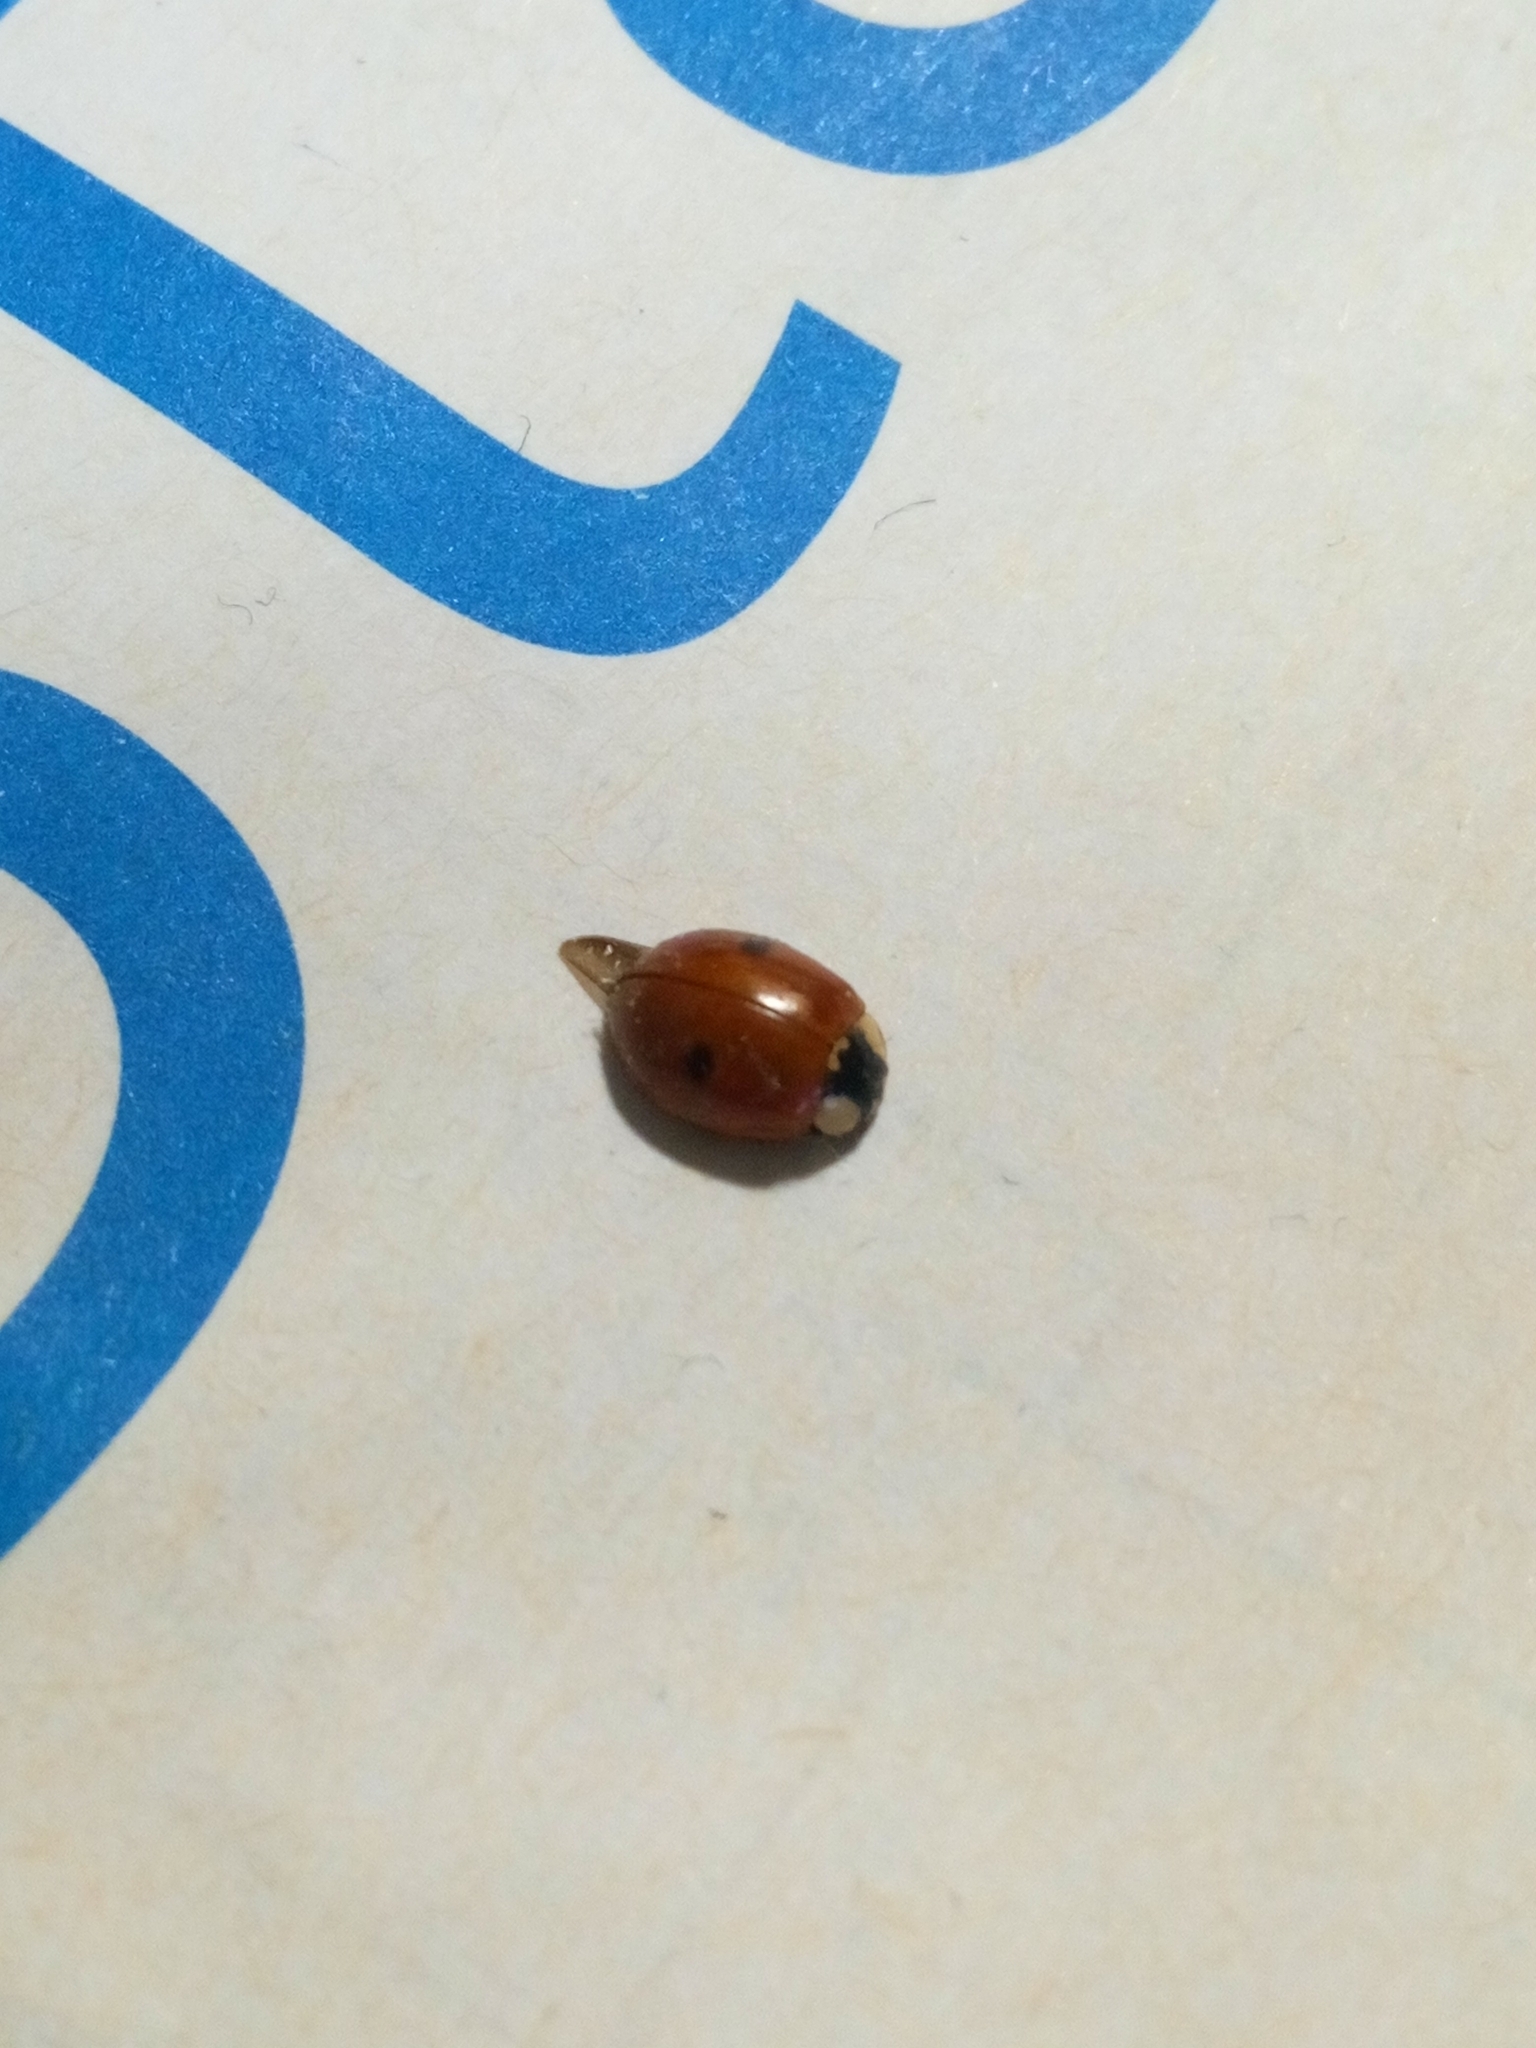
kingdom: Animalia
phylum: Arthropoda
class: Insecta
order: Coleoptera
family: Coccinellidae
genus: Adalia
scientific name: Adalia bipunctata
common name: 2-spot ladybird
